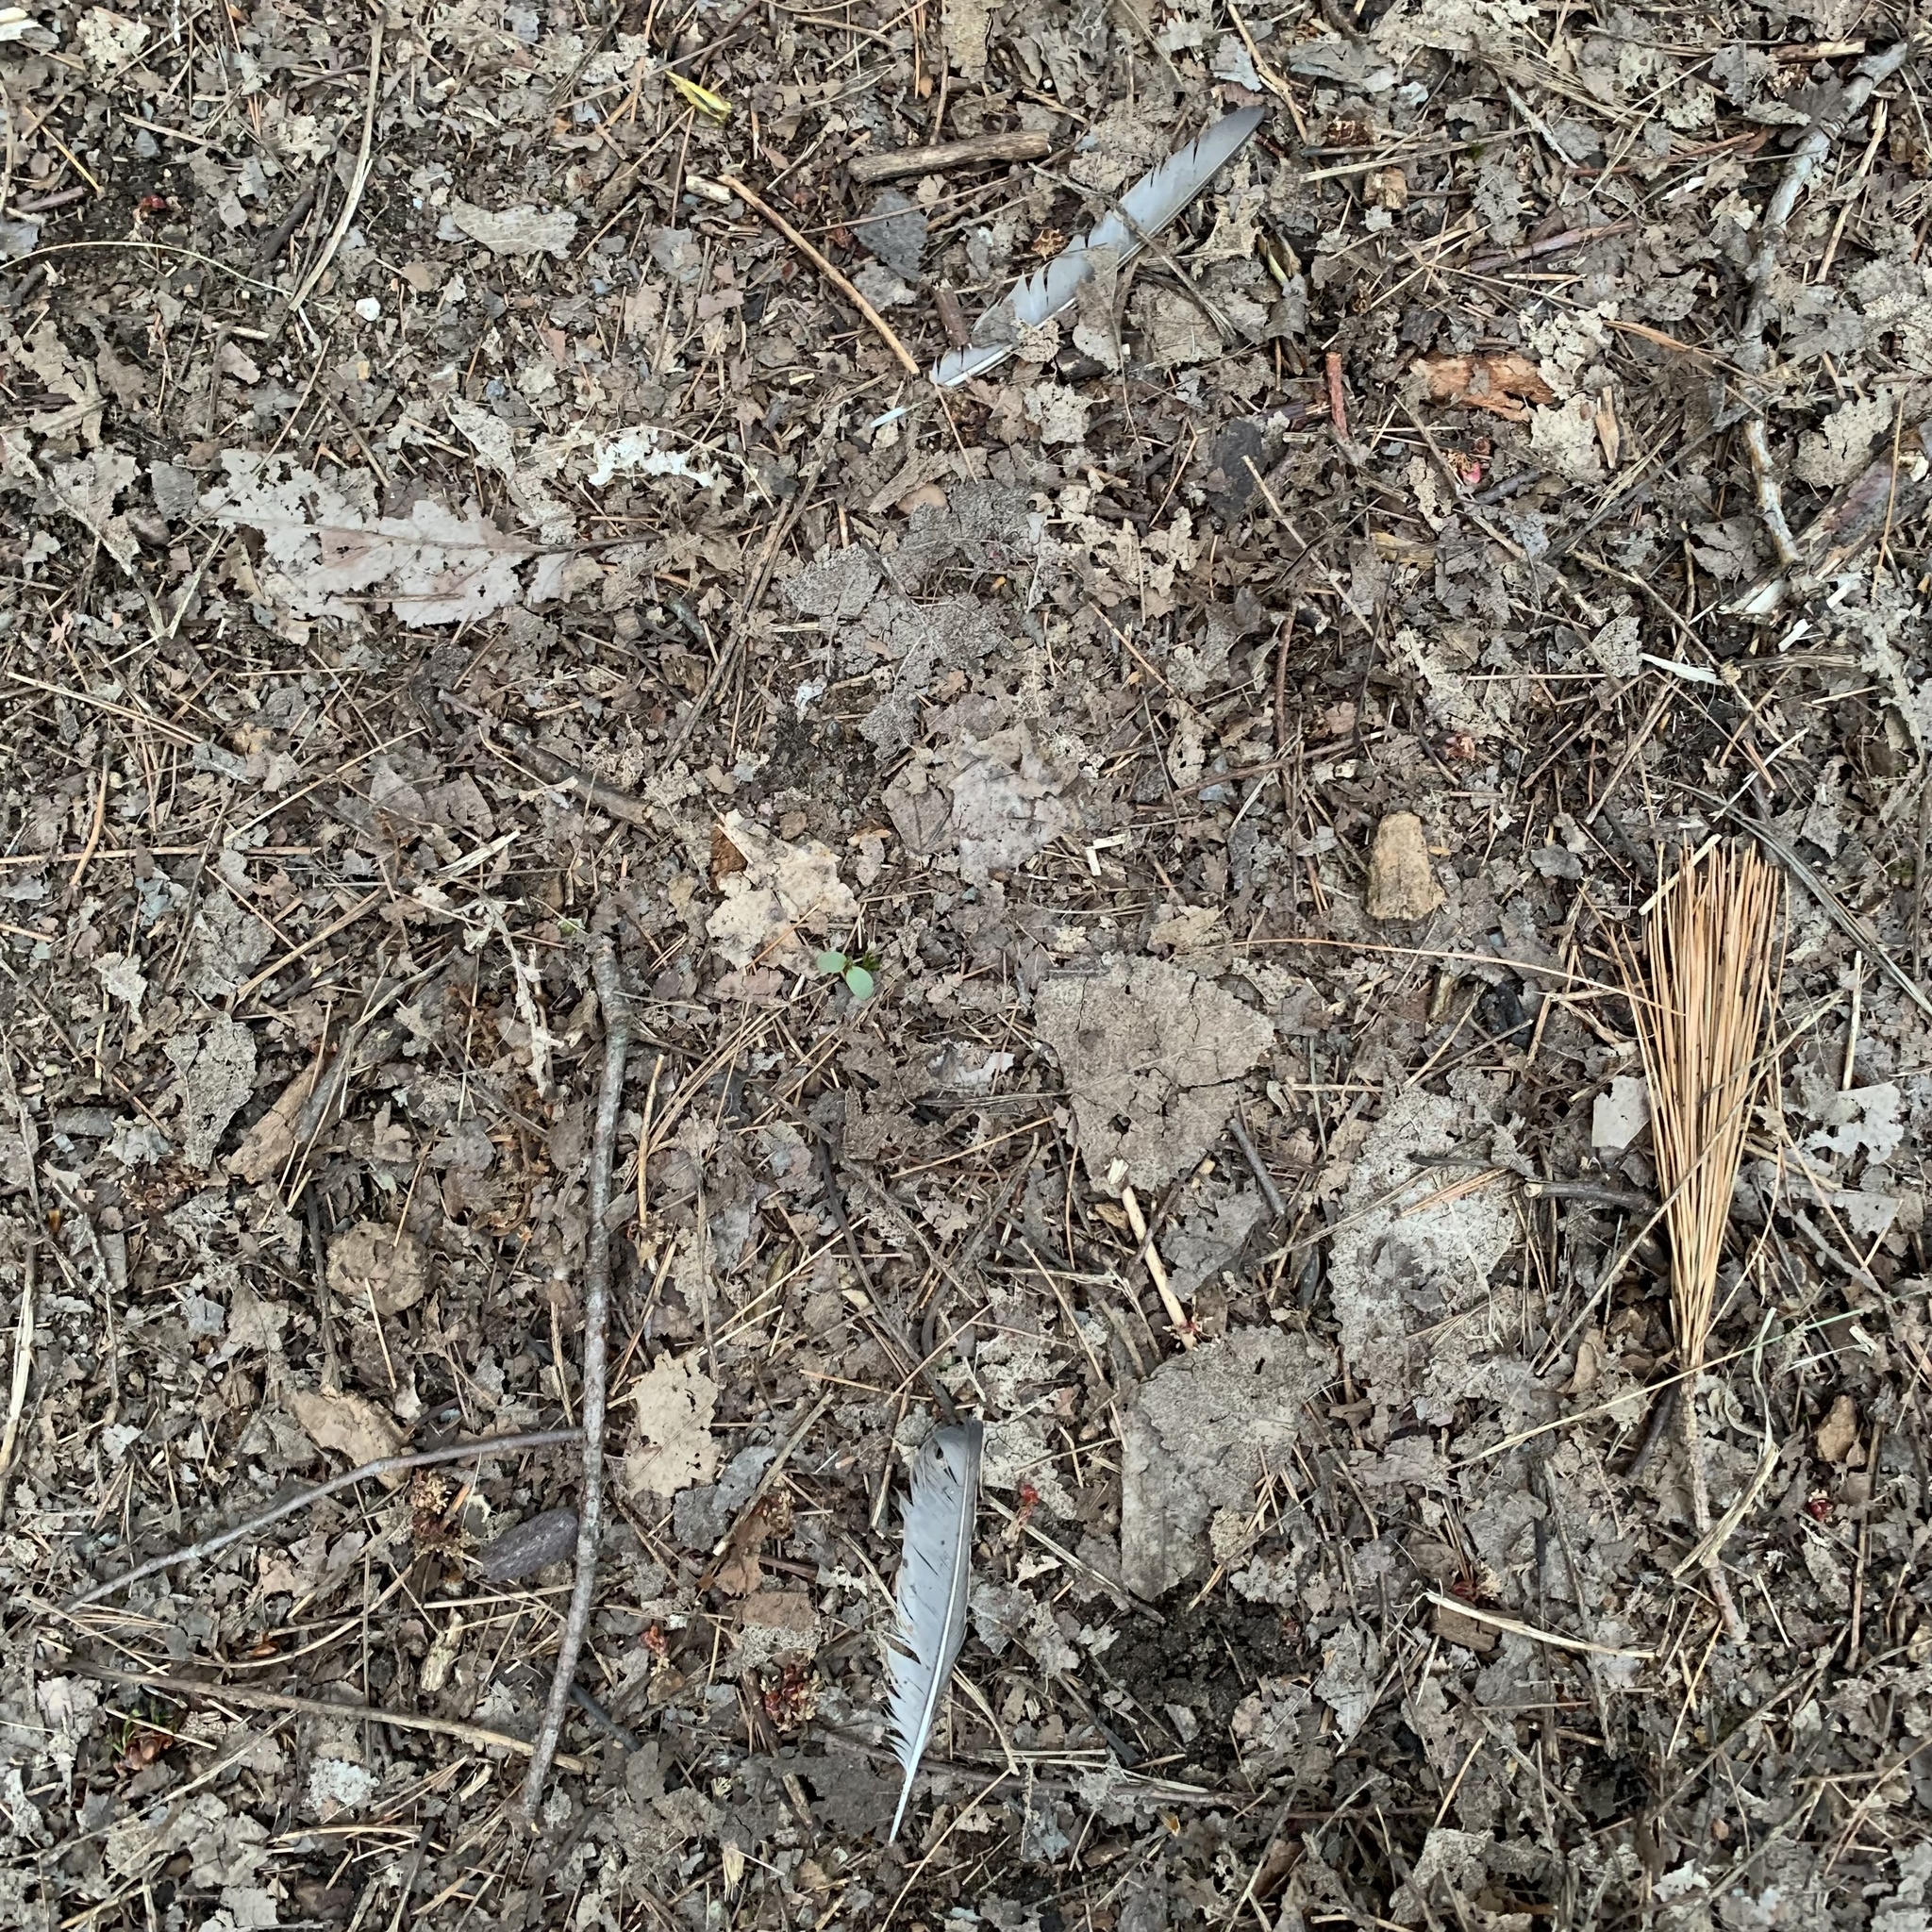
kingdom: Animalia
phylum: Chordata
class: Aves
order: Passeriformes
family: Sturnidae
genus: Sturnus
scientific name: Sturnus vulgaris
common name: Common starling
